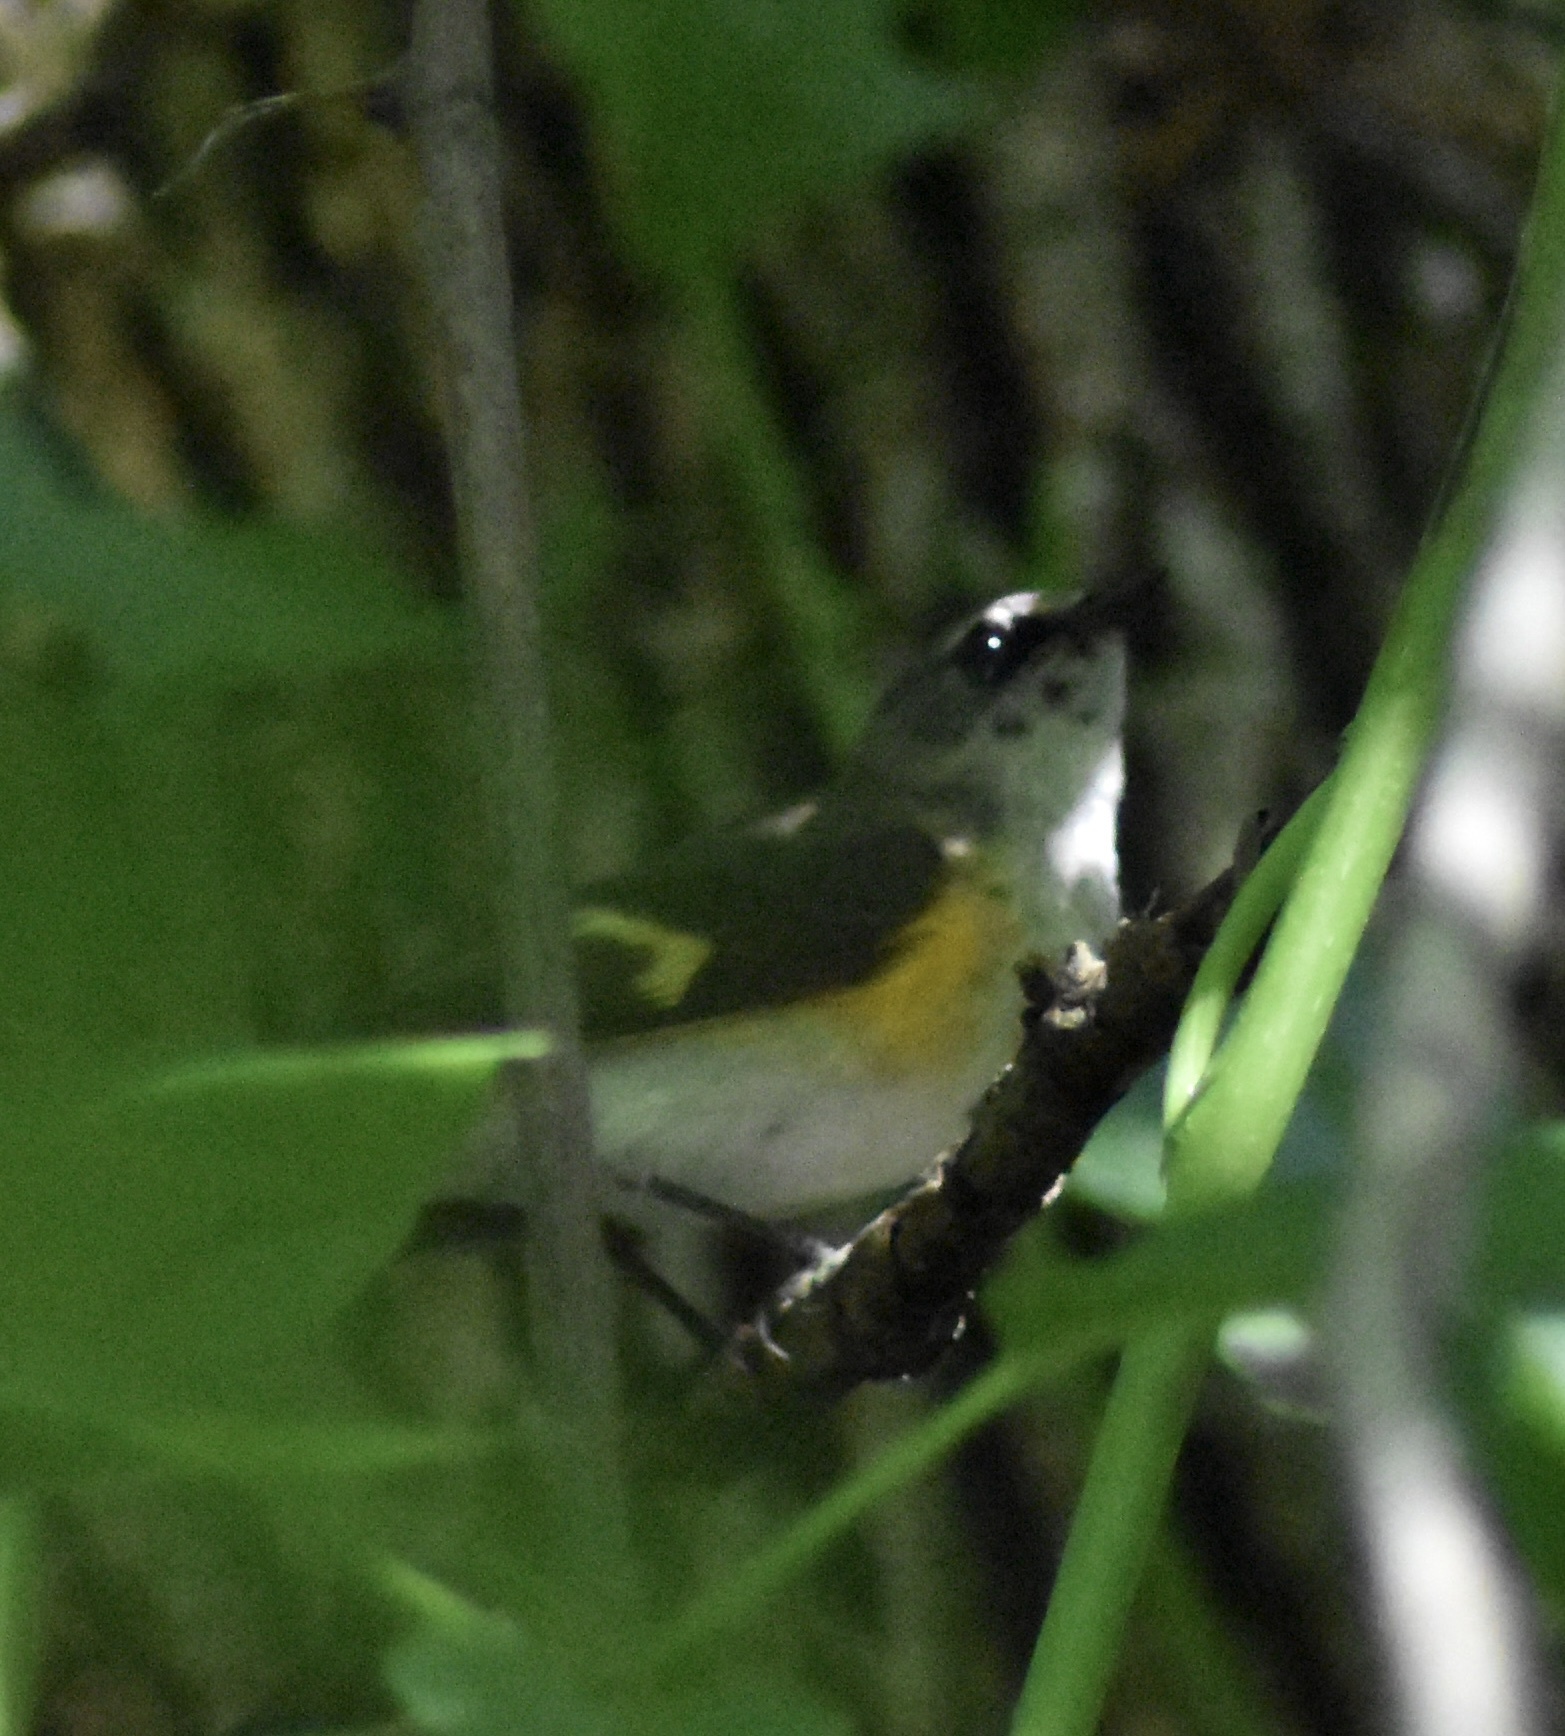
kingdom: Animalia
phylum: Chordata
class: Aves
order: Passeriformes
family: Parulidae
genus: Setophaga
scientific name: Setophaga ruticilla
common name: American redstart
